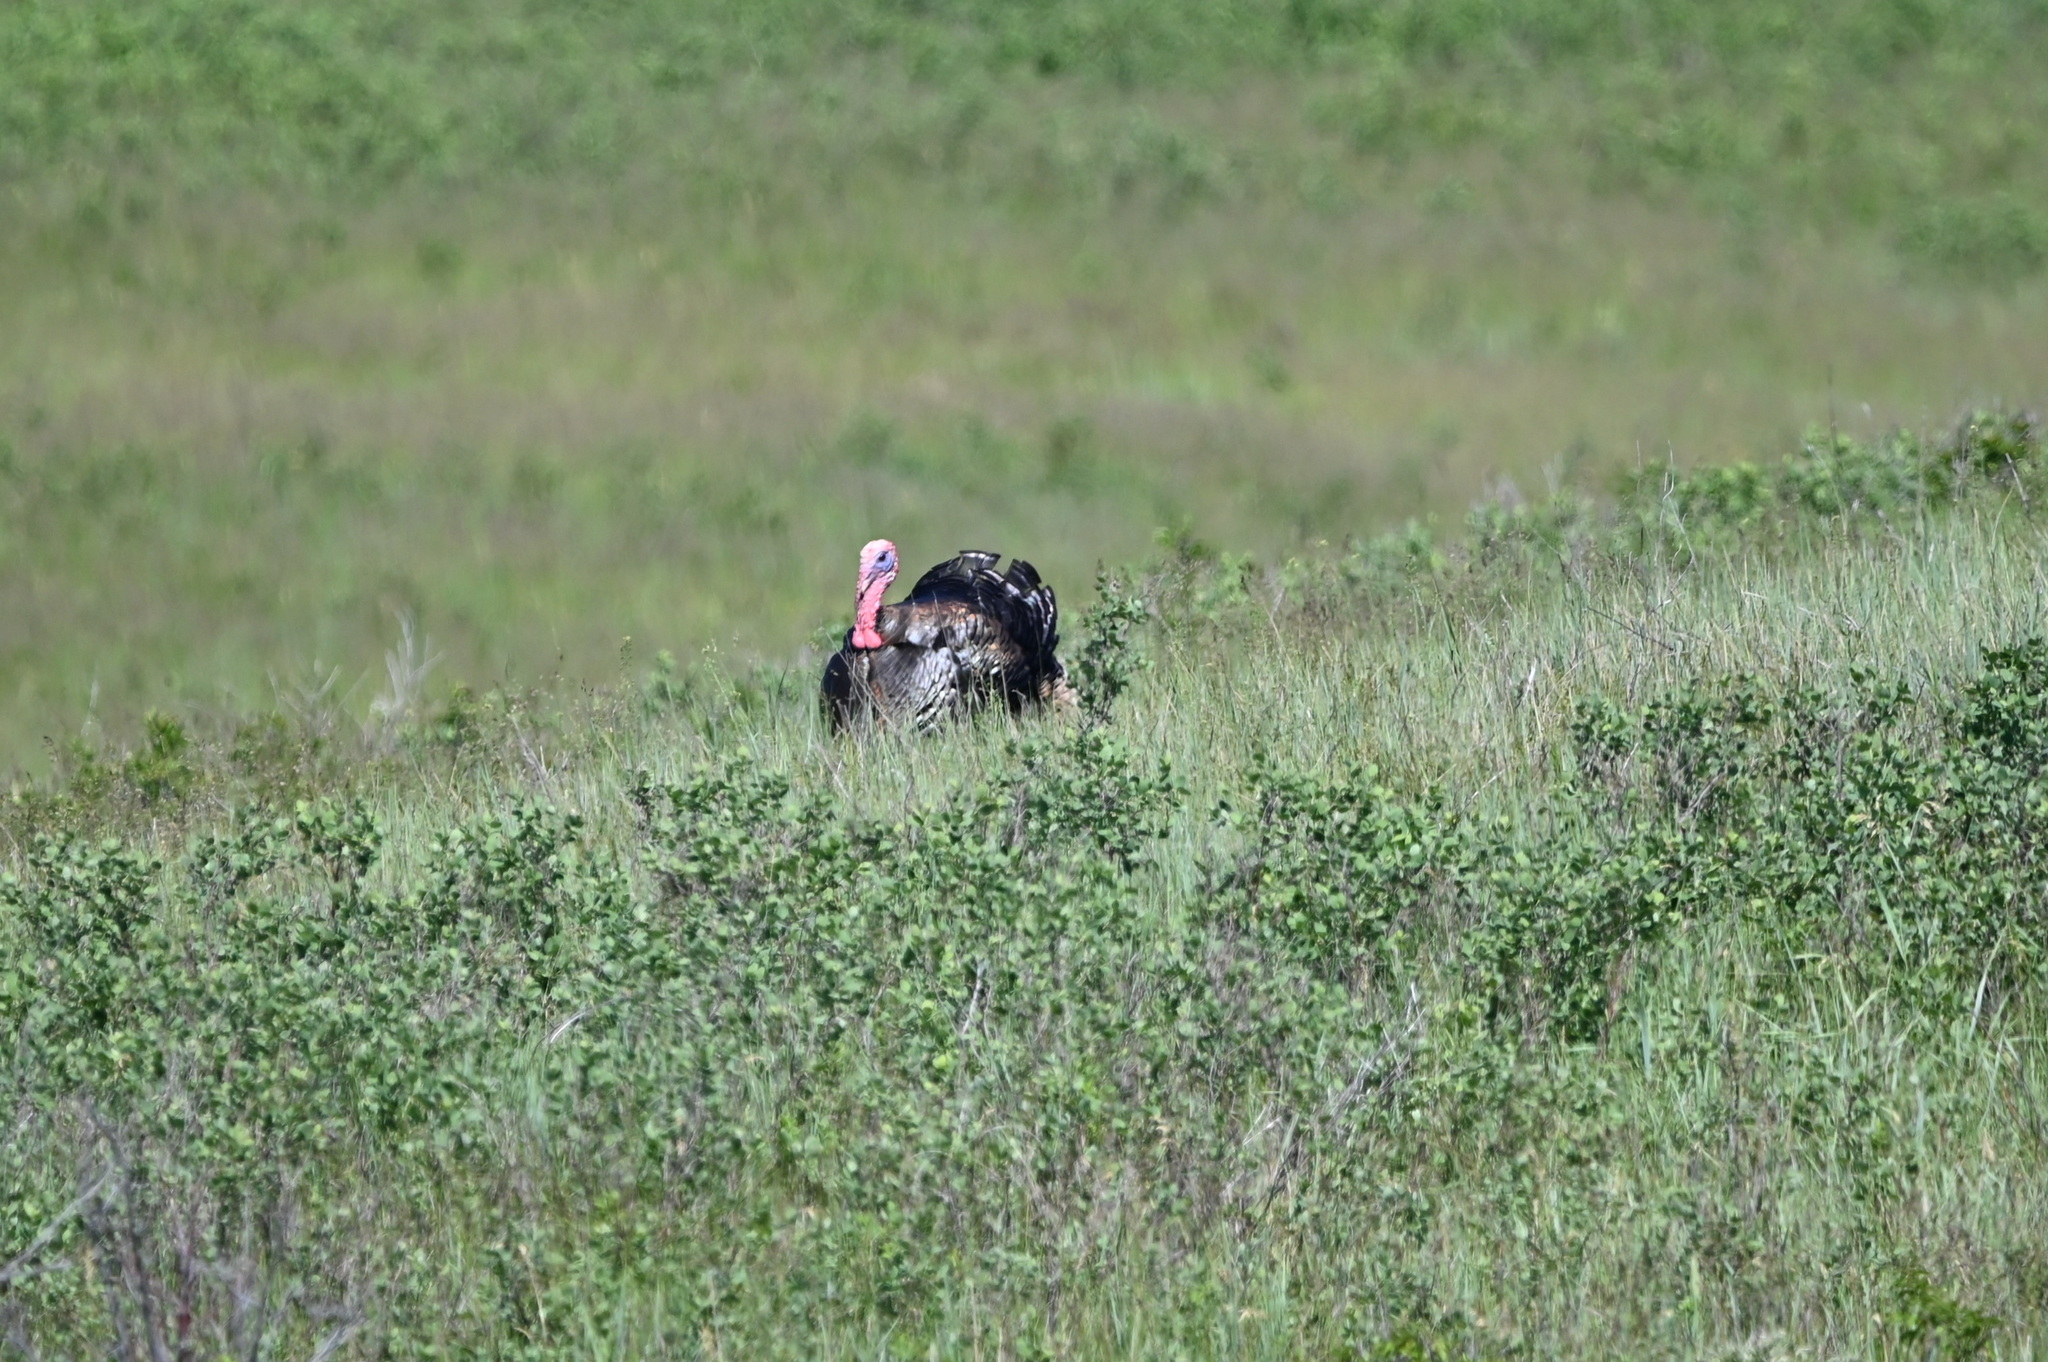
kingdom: Animalia
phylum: Chordata
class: Aves
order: Galliformes
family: Phasianidae
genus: Meleagris
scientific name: Meleagris gallopavo
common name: Wild turkey
